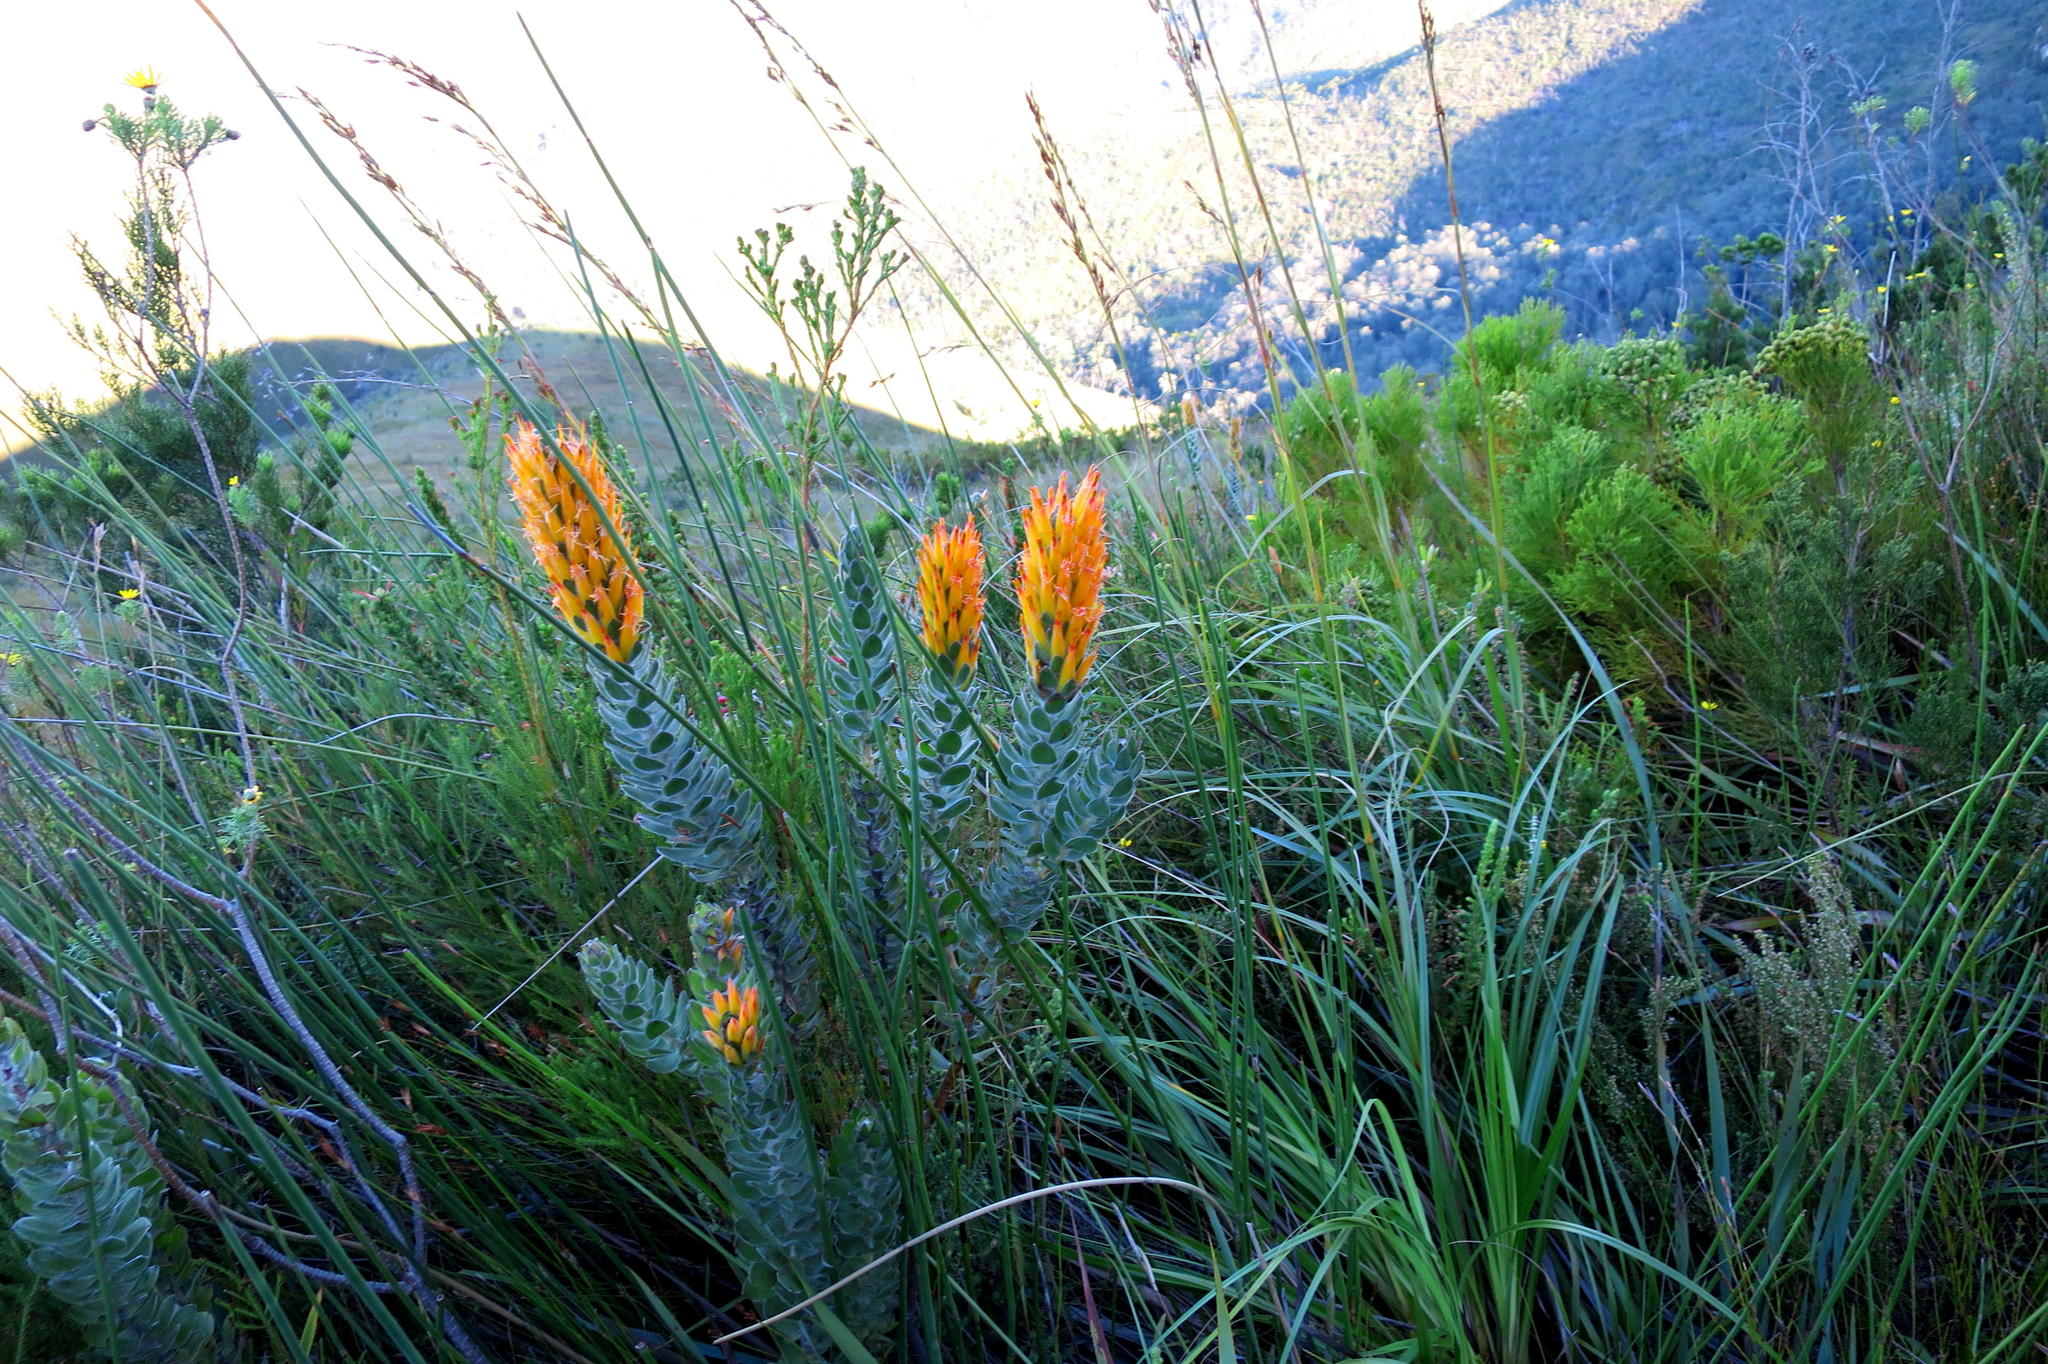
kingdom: Plantae
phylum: Tracheophyta
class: Magnoliopsida
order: Proteales
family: Proteaceae
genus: Mimetes
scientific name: Mimetes pauciflora
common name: Three-flowered pagoda
